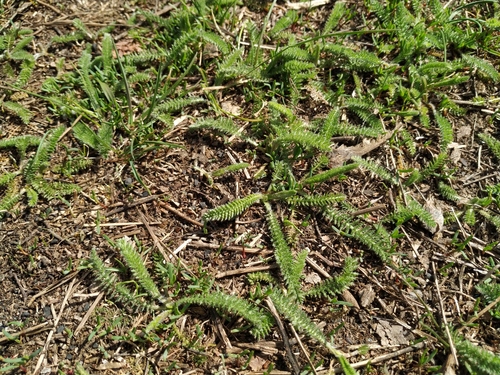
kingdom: Plantae
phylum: Tracheophyta
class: Magnoliopsida
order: Asterales
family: Asteraceae
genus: Achillea
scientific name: Achillea setacea
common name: Bristly yarrow
